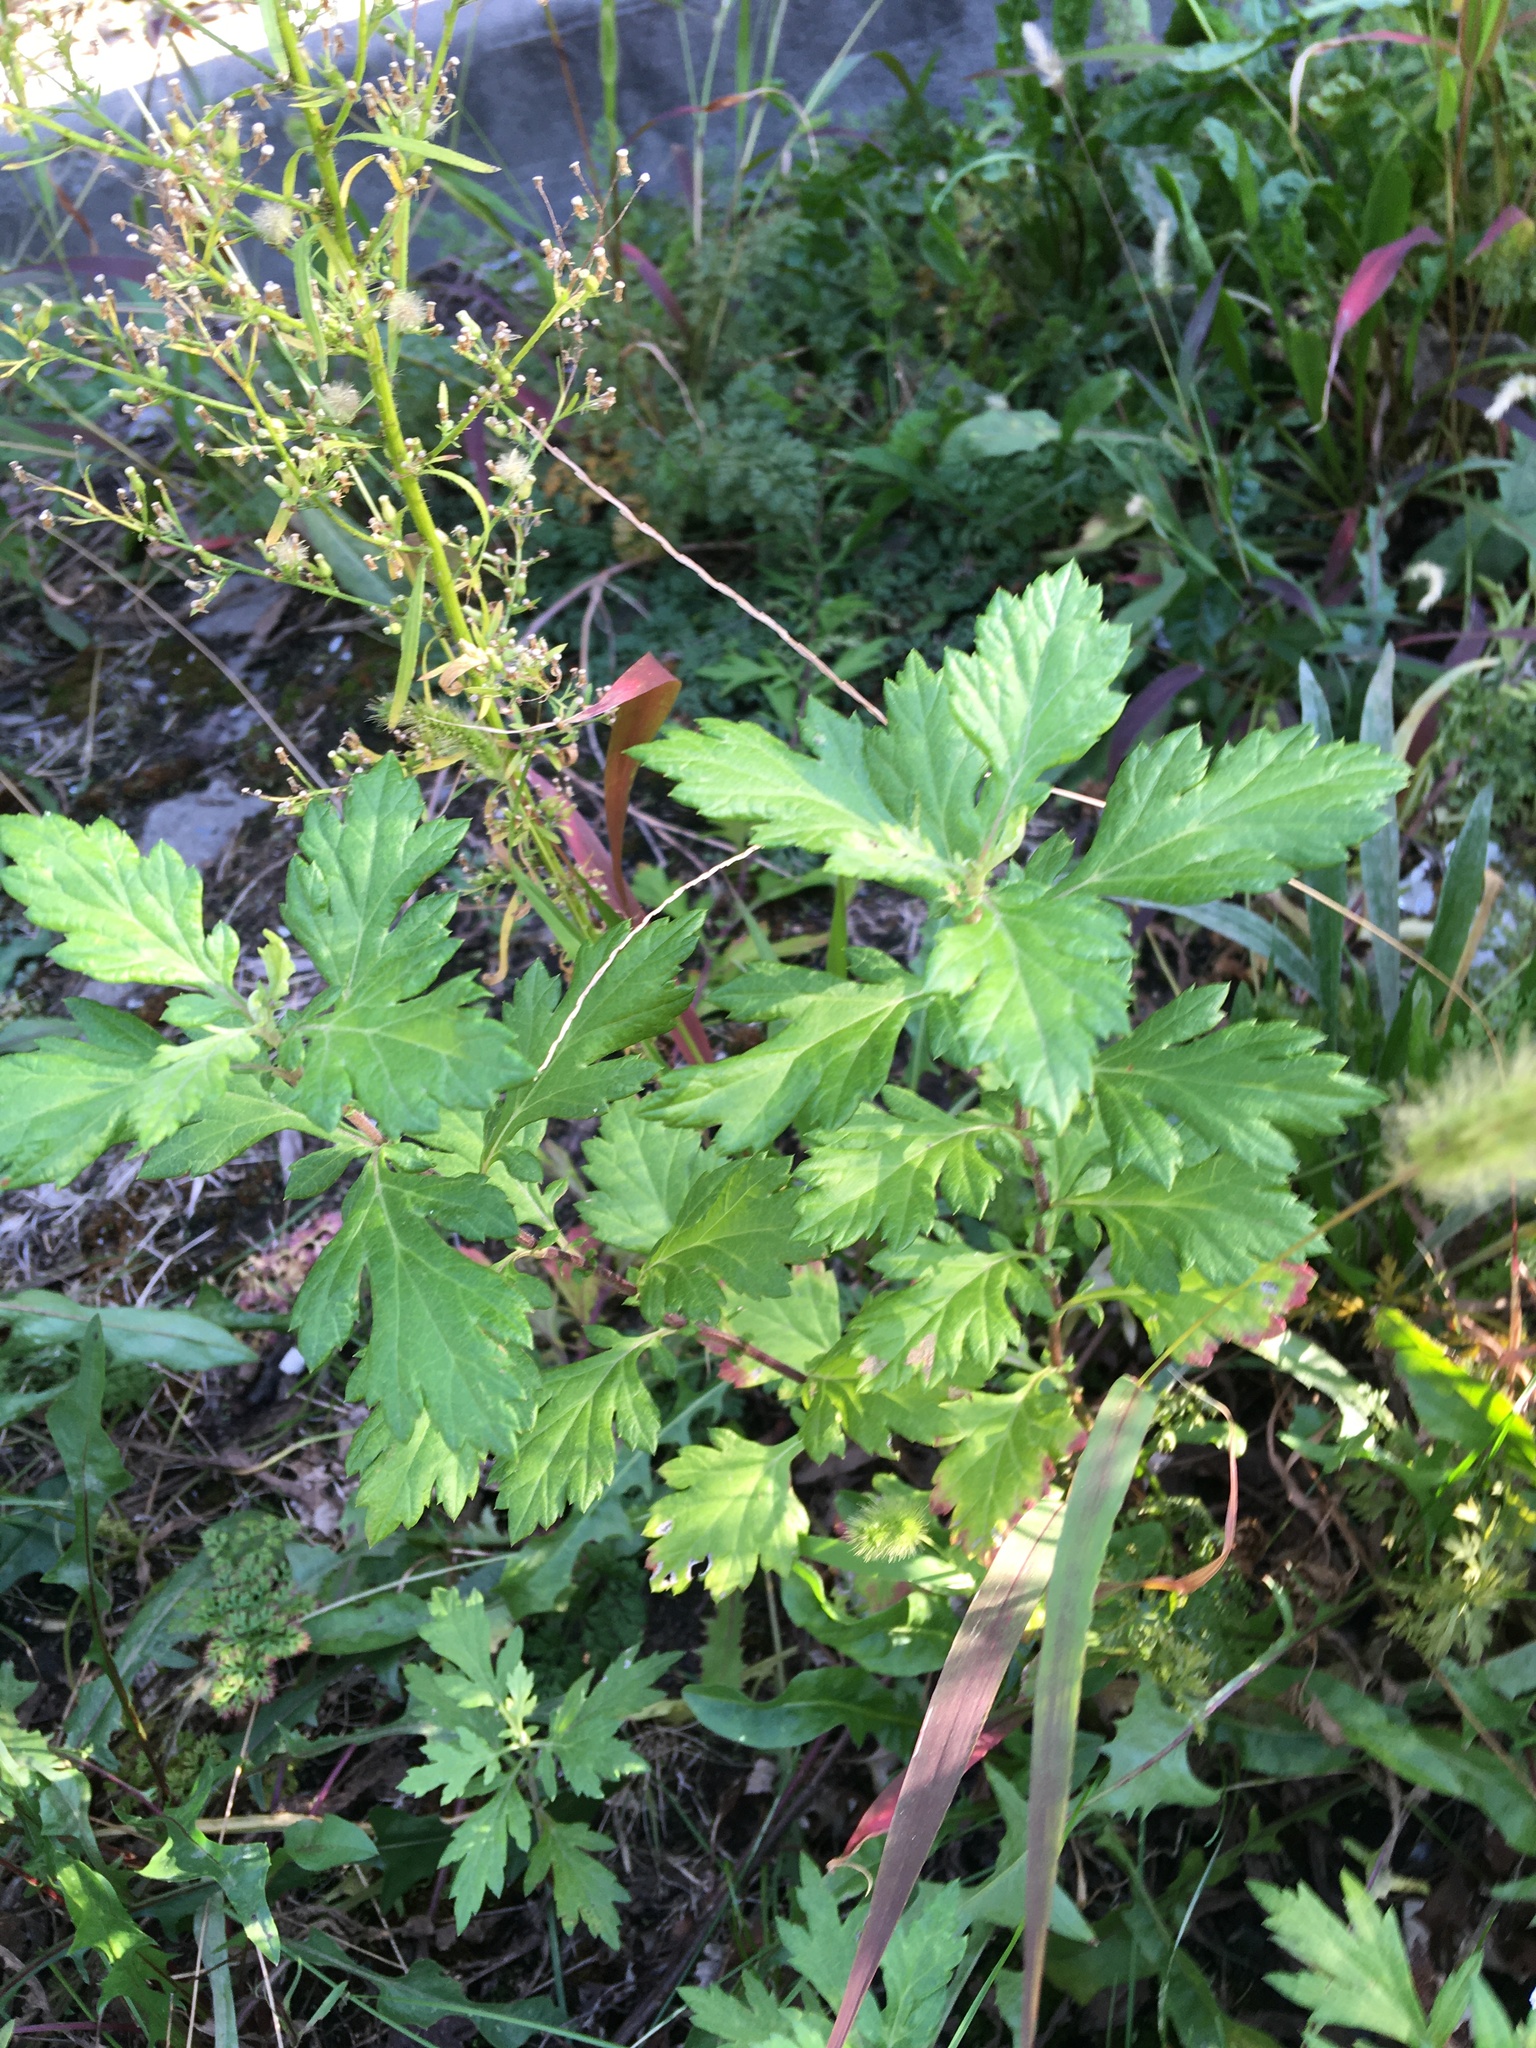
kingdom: Plantae
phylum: Tracheophyta
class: Magnoliopsida
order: Asterales
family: Asteraceae
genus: Artemisia
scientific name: Artemisia vulgaris
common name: Mugwort
